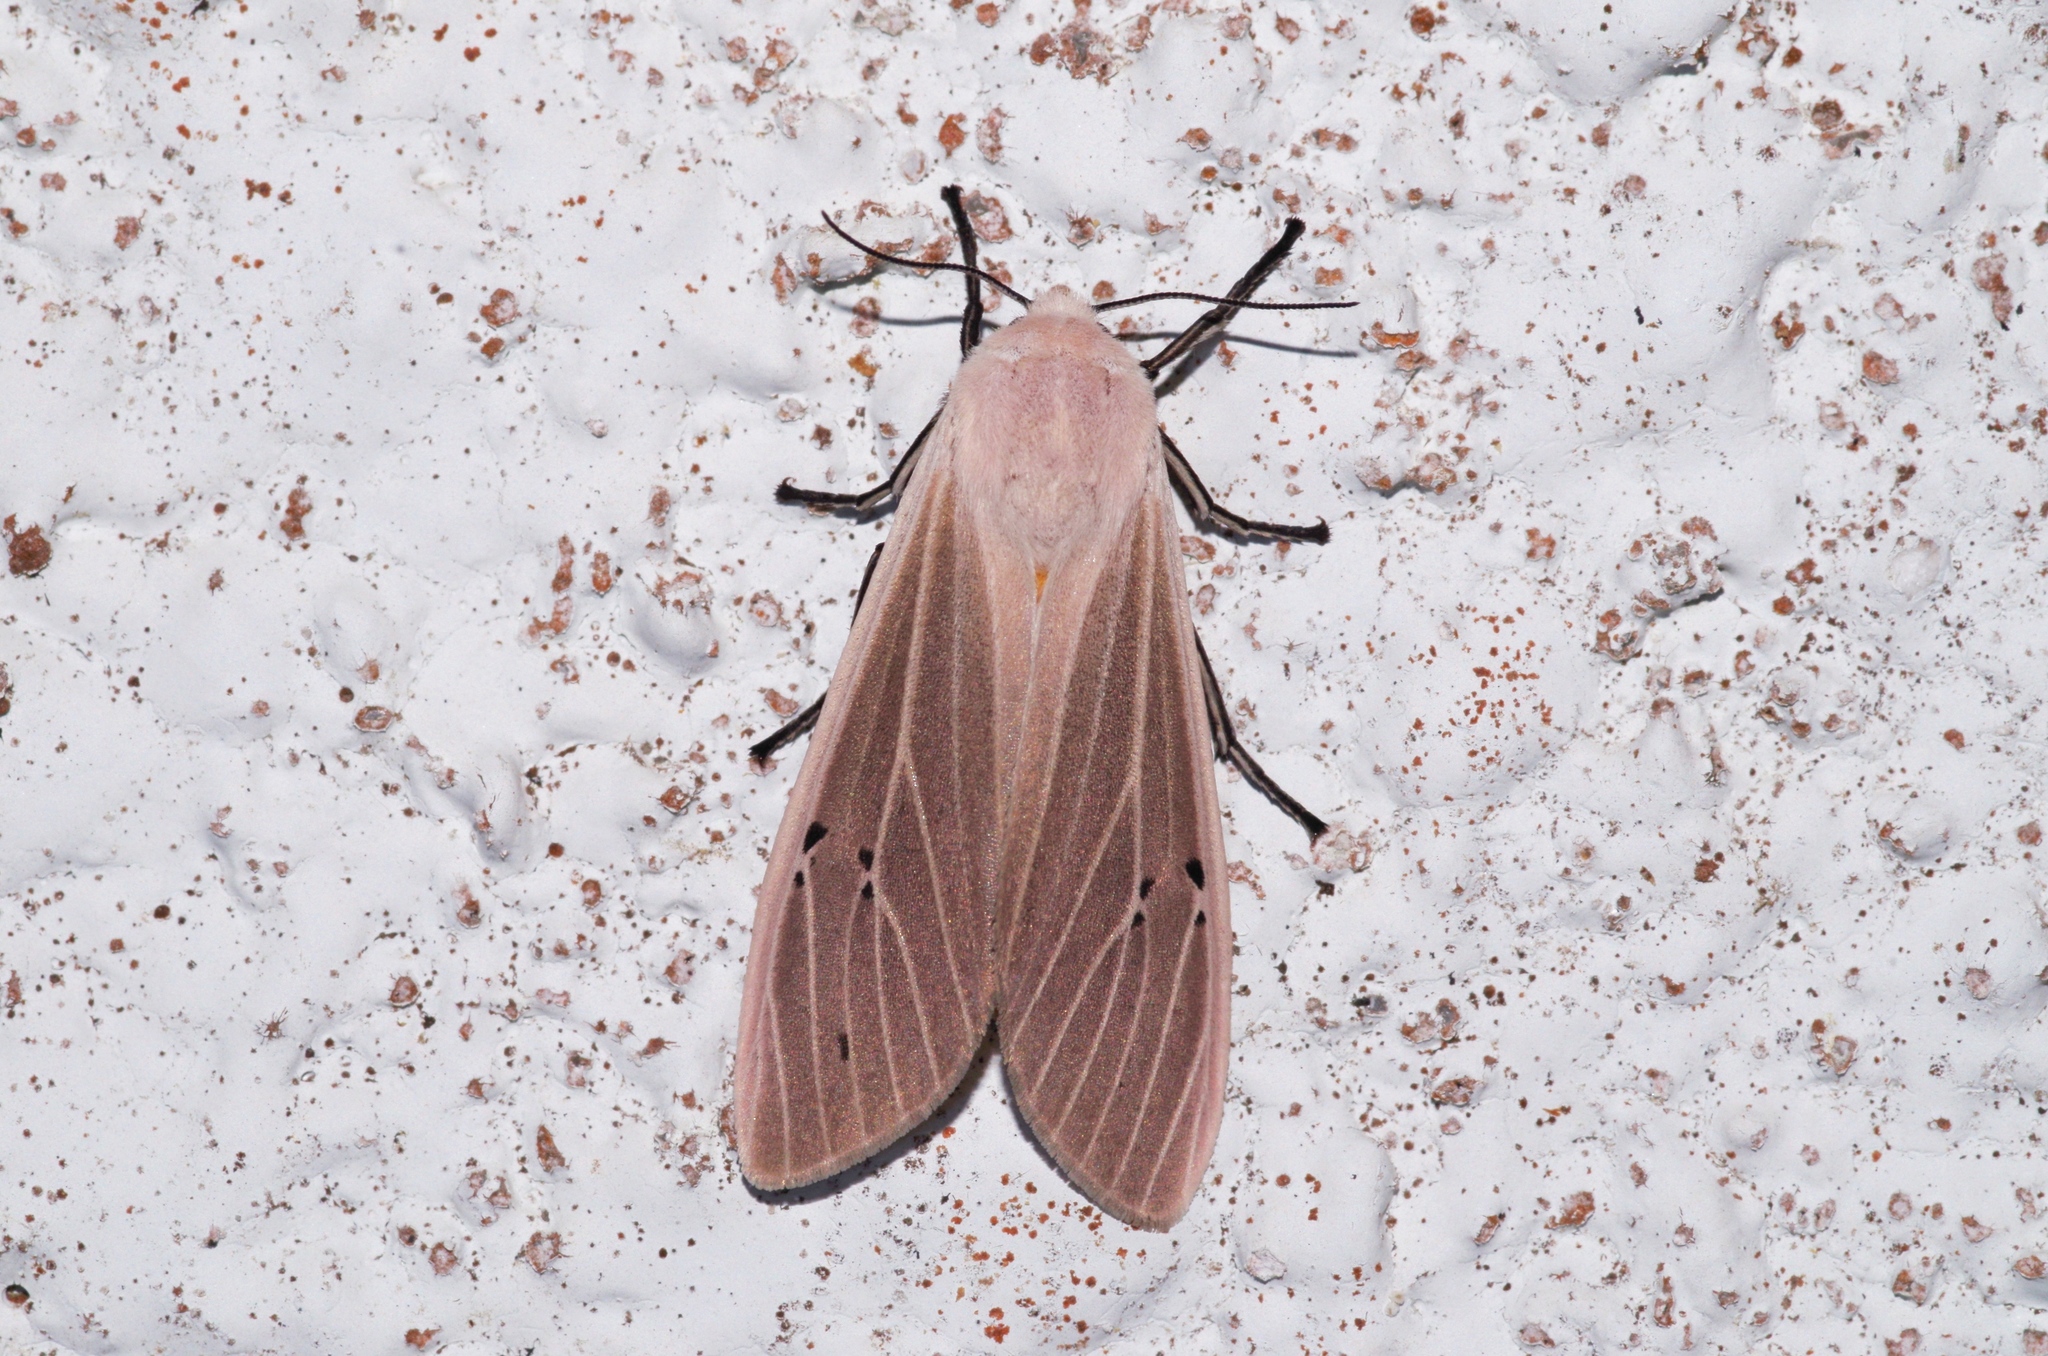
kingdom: Animalia
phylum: Arthropoda
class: Insecta
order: Lepidoptera
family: Erebidae
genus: Creatonotos
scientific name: Creatonotos transiens
